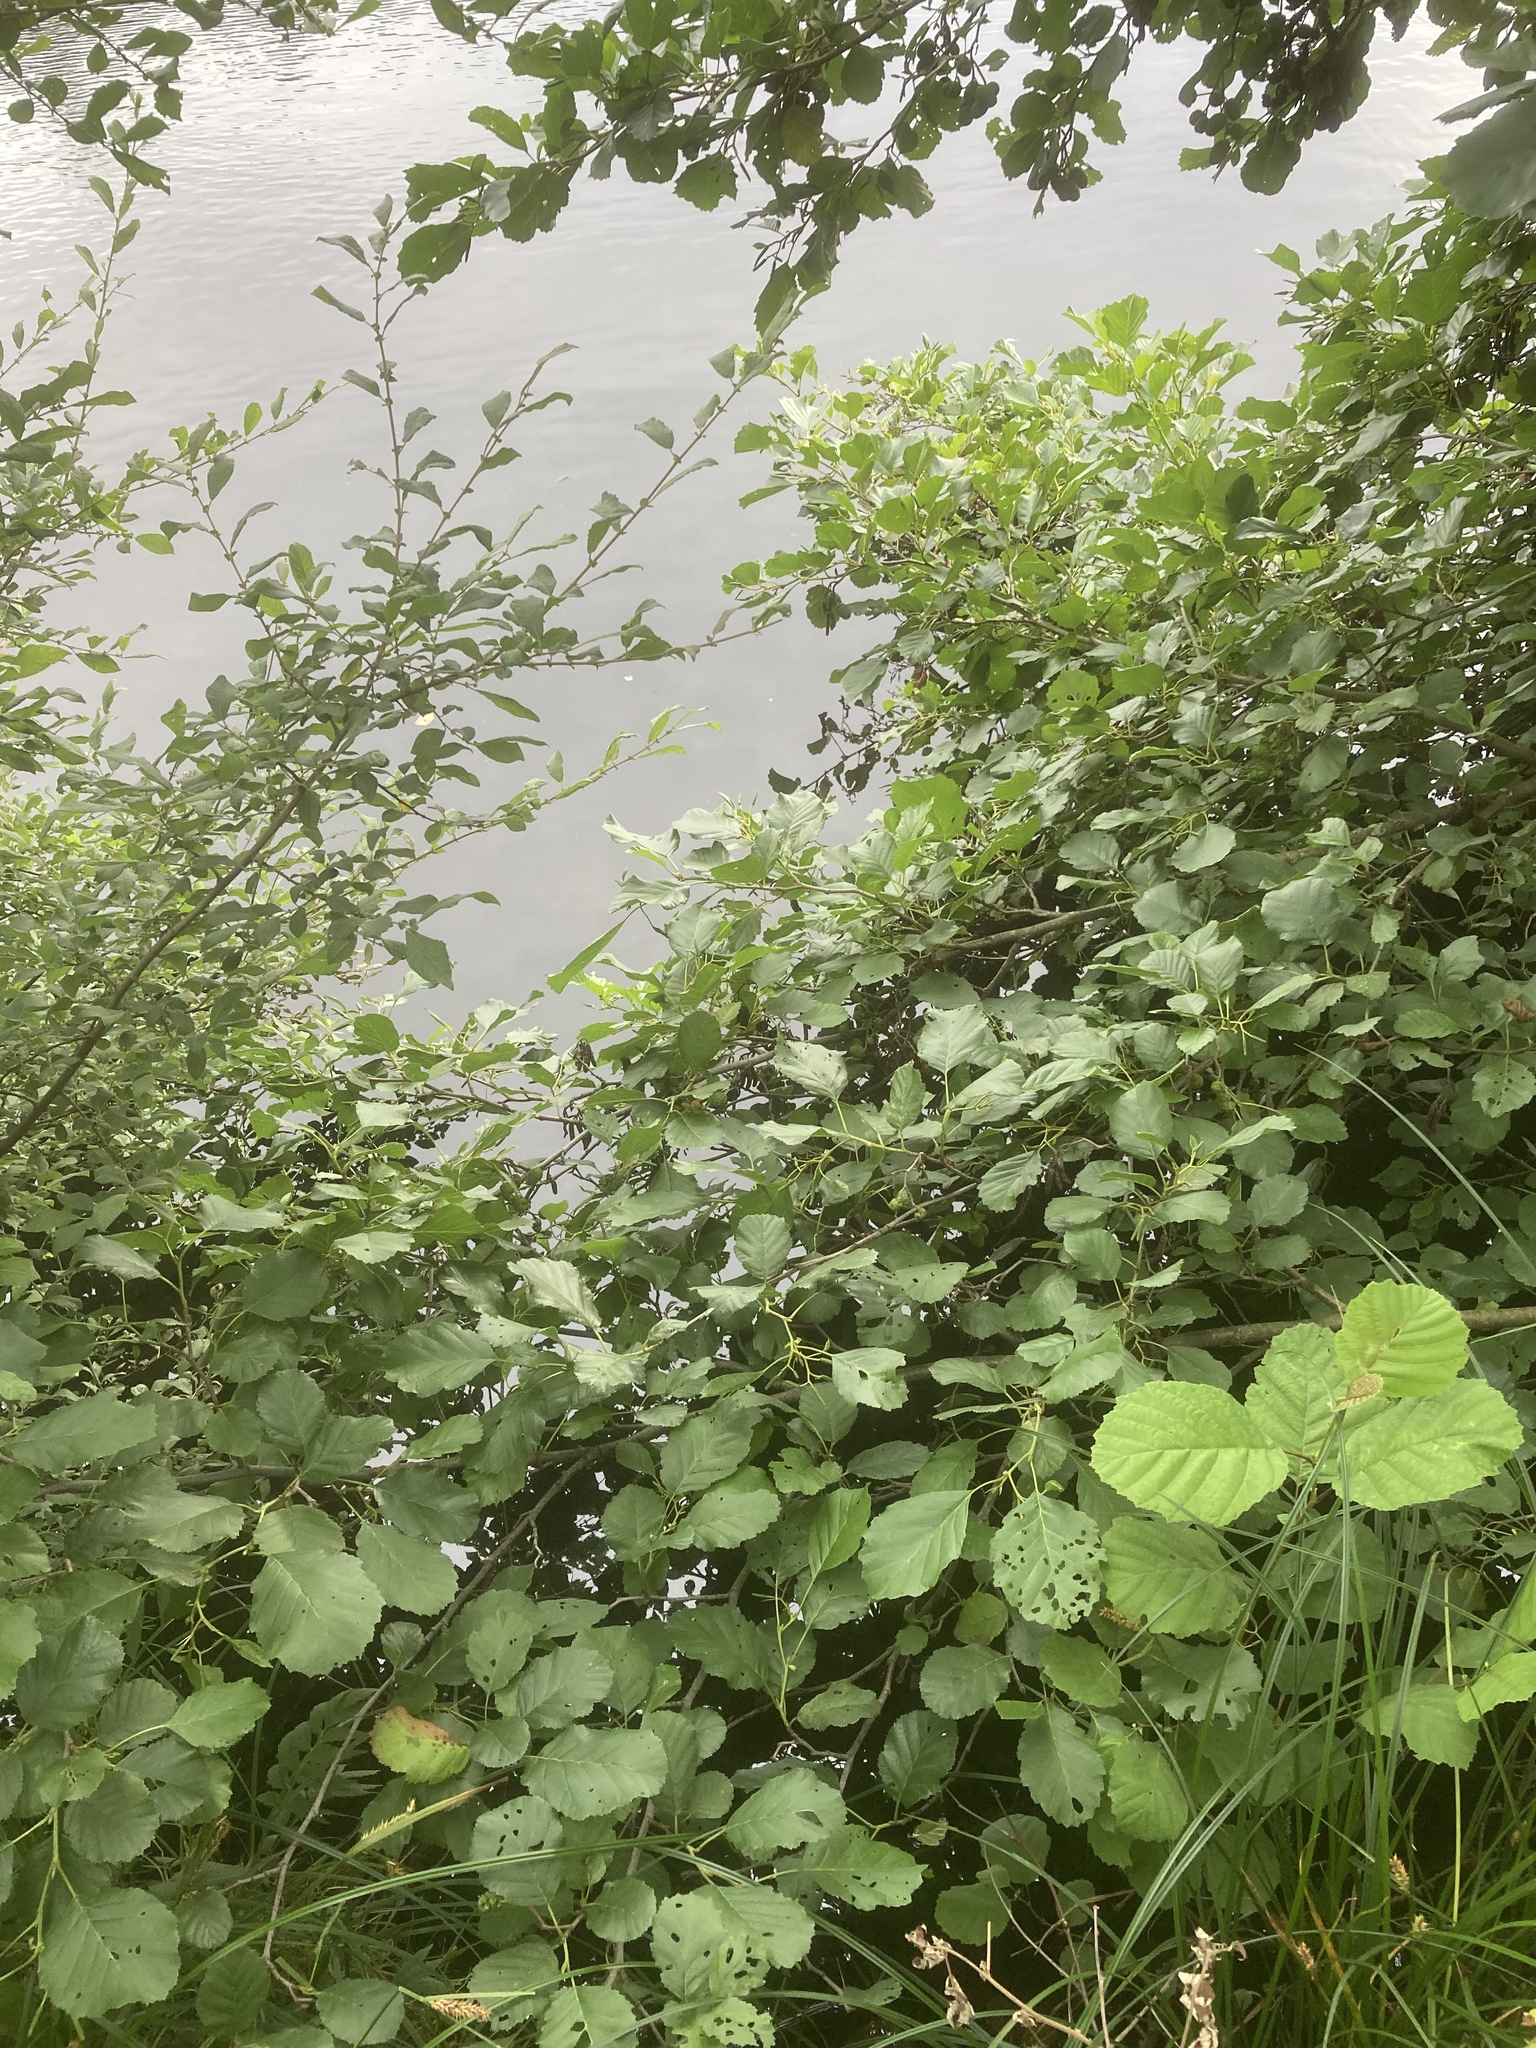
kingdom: Plantae
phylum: Tracheophyta
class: Magnoliopsida
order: Fagales
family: Betulaceae
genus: Alnus
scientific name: Alnus incana
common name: Grey alder
